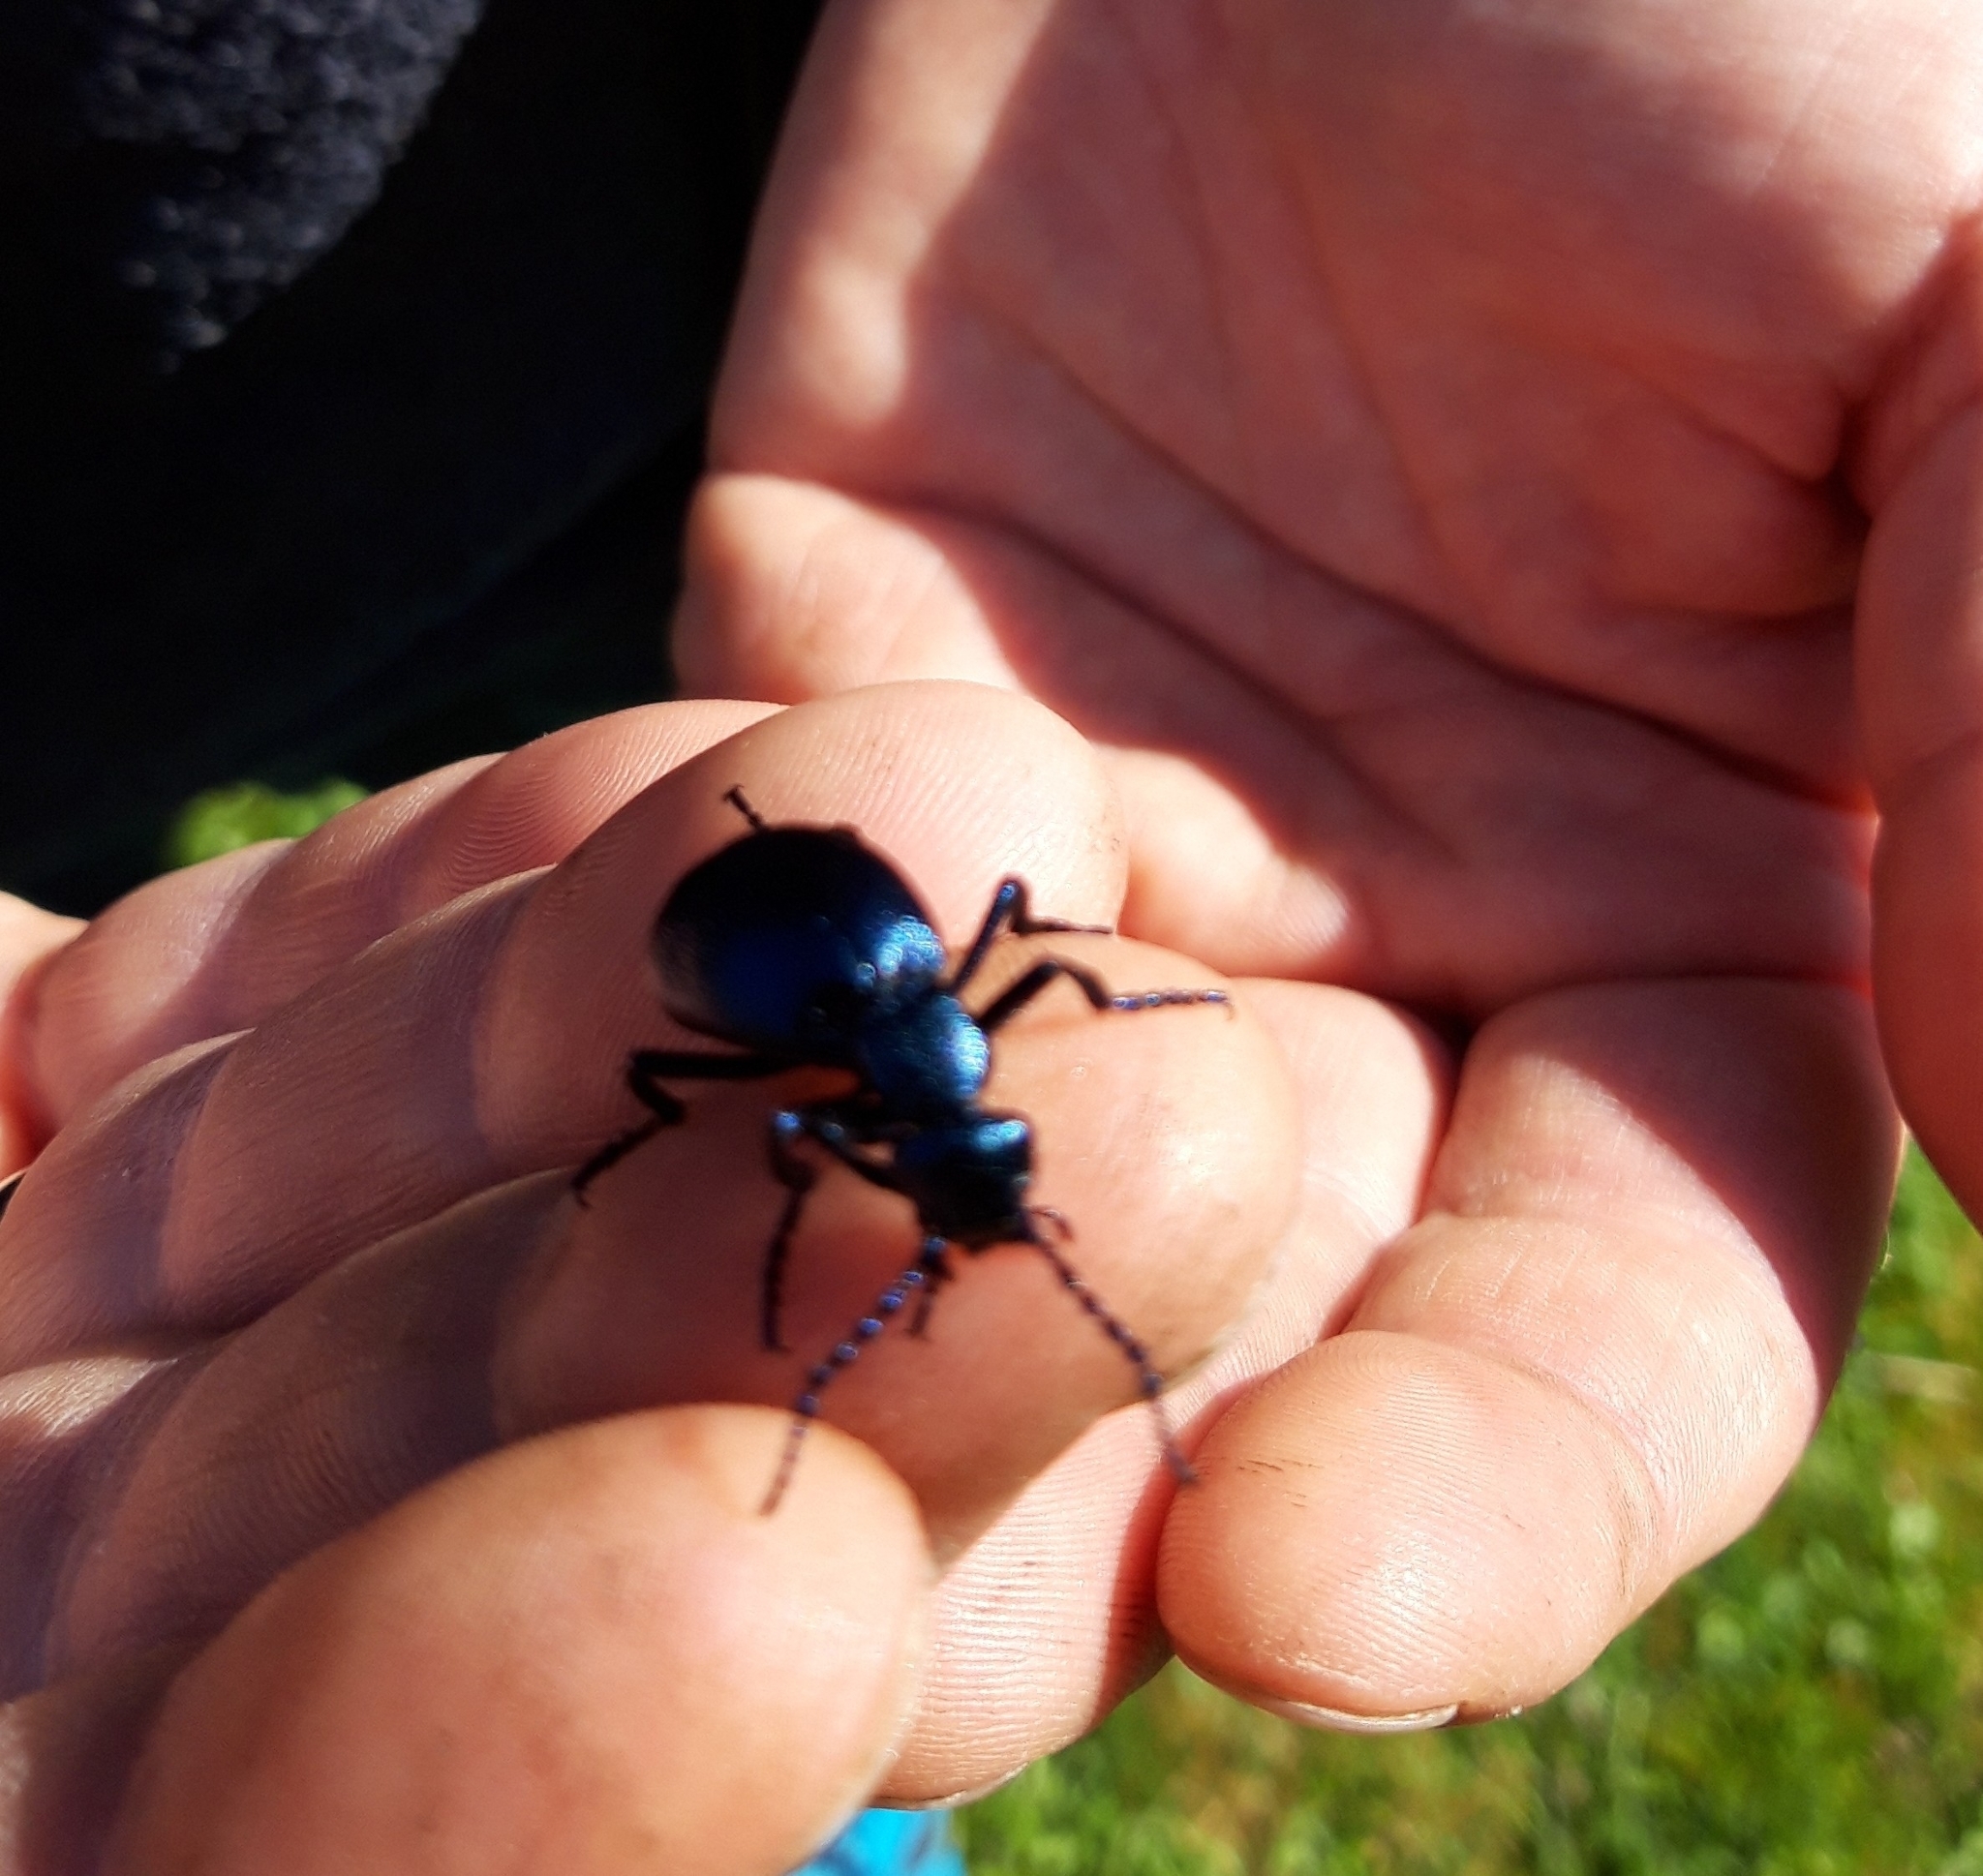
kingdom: Animalia
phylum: Arthropoda
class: Insecta
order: Coleoptera
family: Meloidae
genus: Meloe
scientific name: Meloe violaceus
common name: Violet oil-beetle
